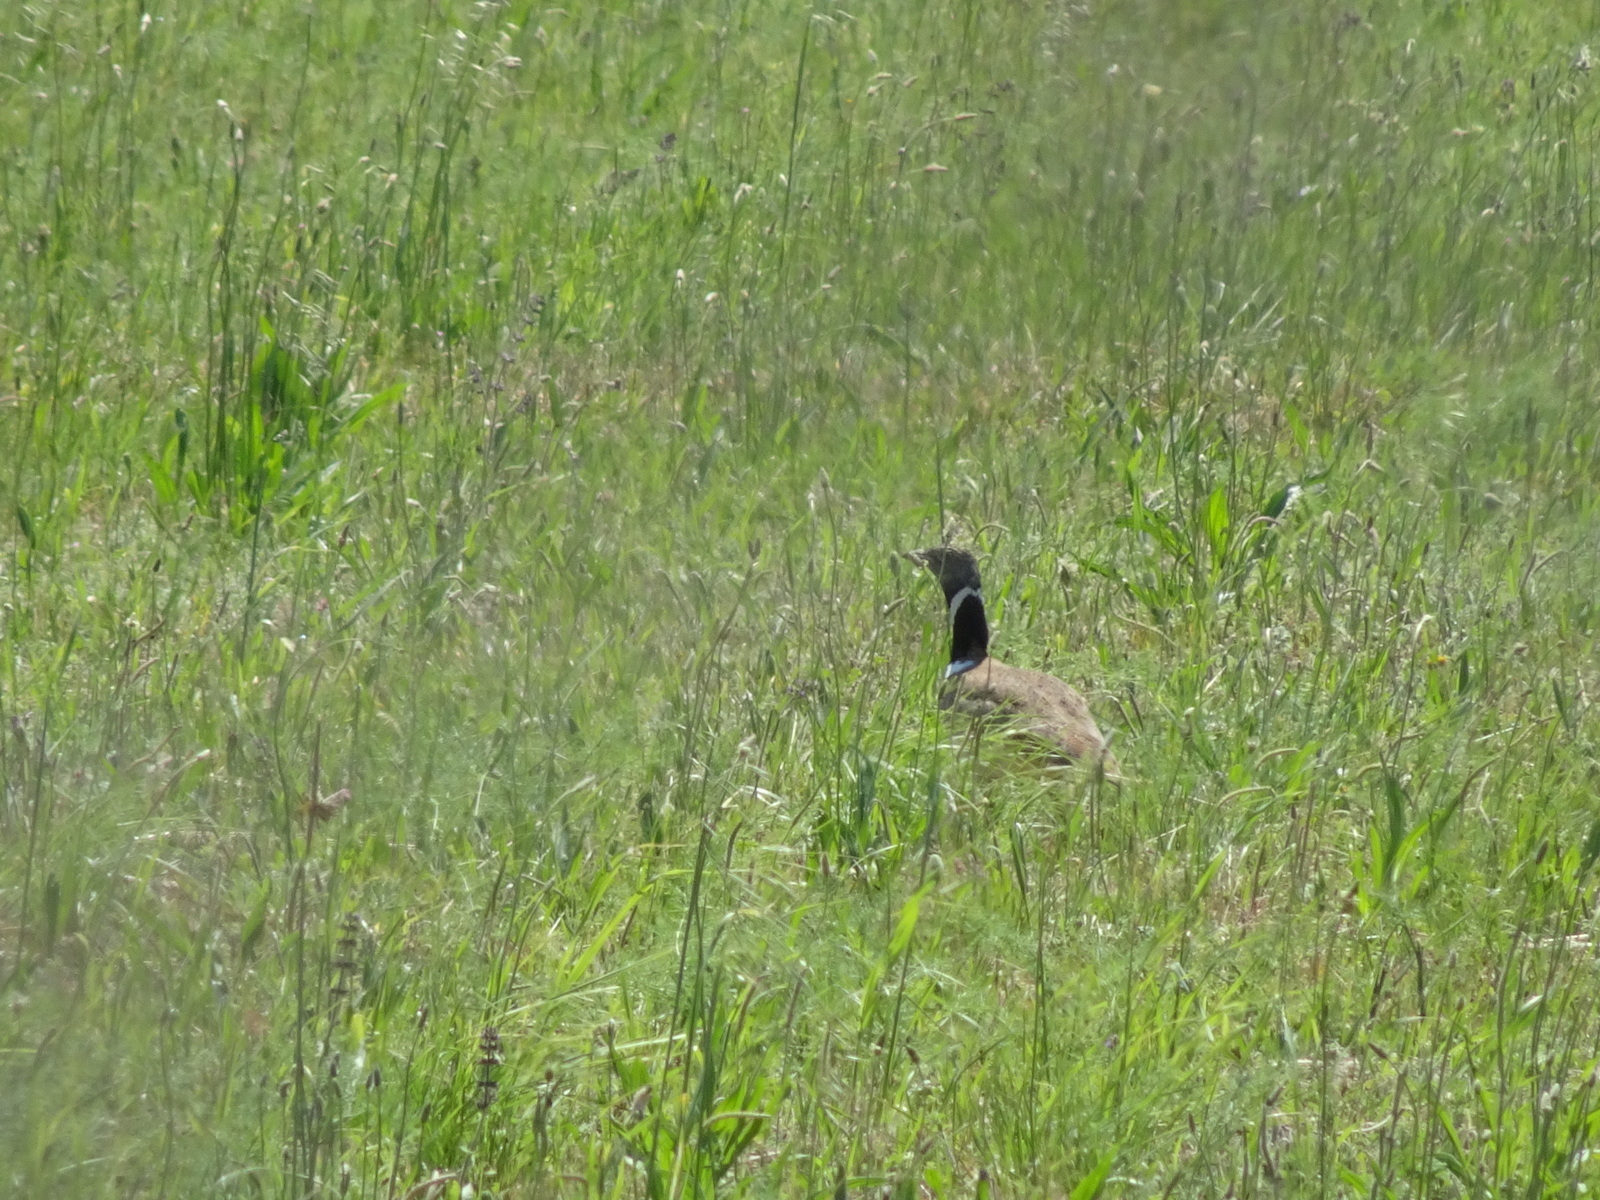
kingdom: Animalia
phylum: Chordata
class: Aves
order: Otidiformes
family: Otididae
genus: Tetrax
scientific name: Tetrax tetrax
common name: Little bustard
